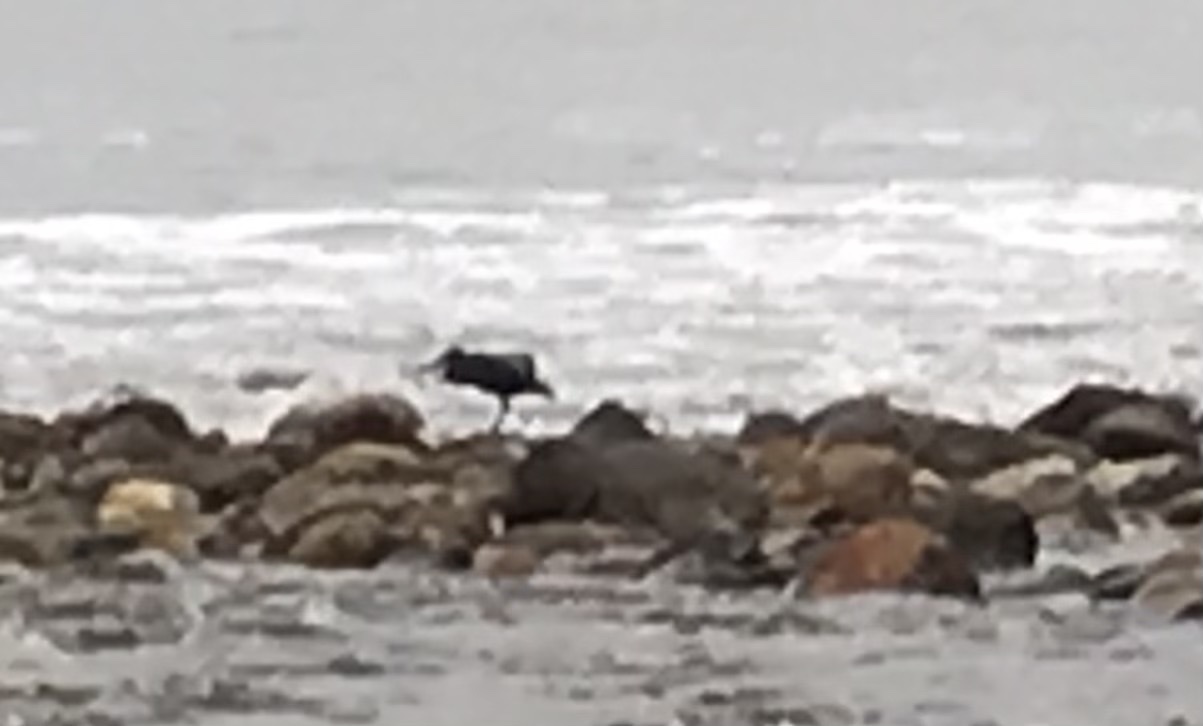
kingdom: Animalia
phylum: Chordata
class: Aves
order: Pelecaniformes
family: Ardeidae
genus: Egretta
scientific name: Egretta sacra
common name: Pacific reef heron
